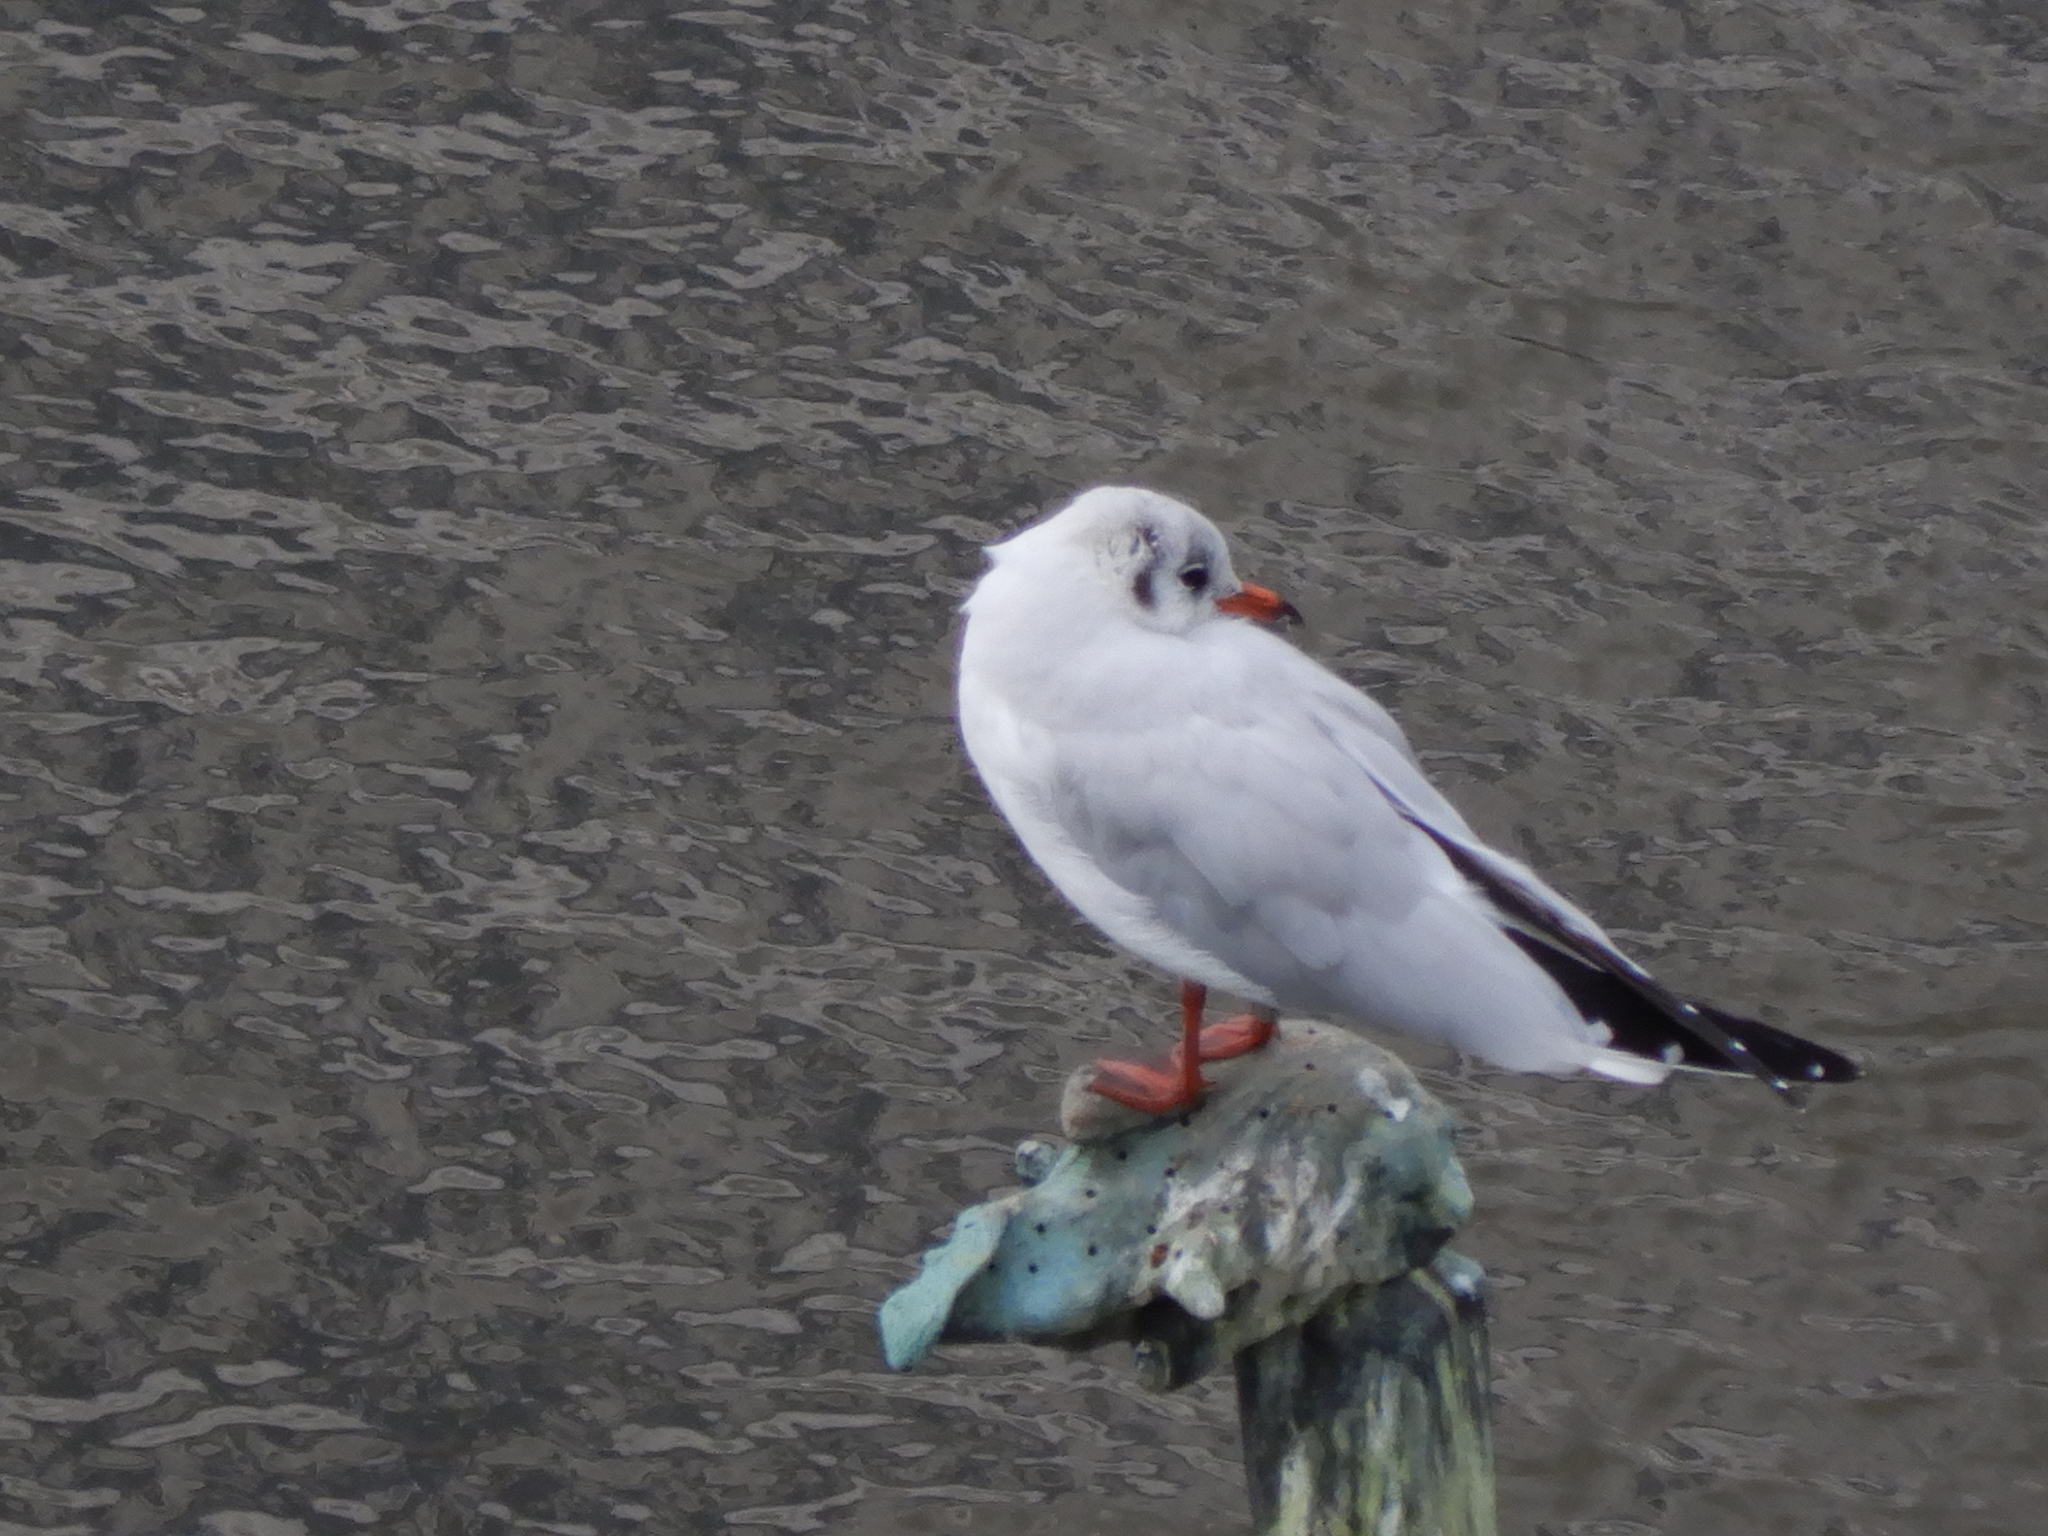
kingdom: Animalia
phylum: Chordata
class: Aves
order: Charadriiformes
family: Laridae
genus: Chroicocephalus
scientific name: Chroicocephalus ridibundus
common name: Black-headed gull
